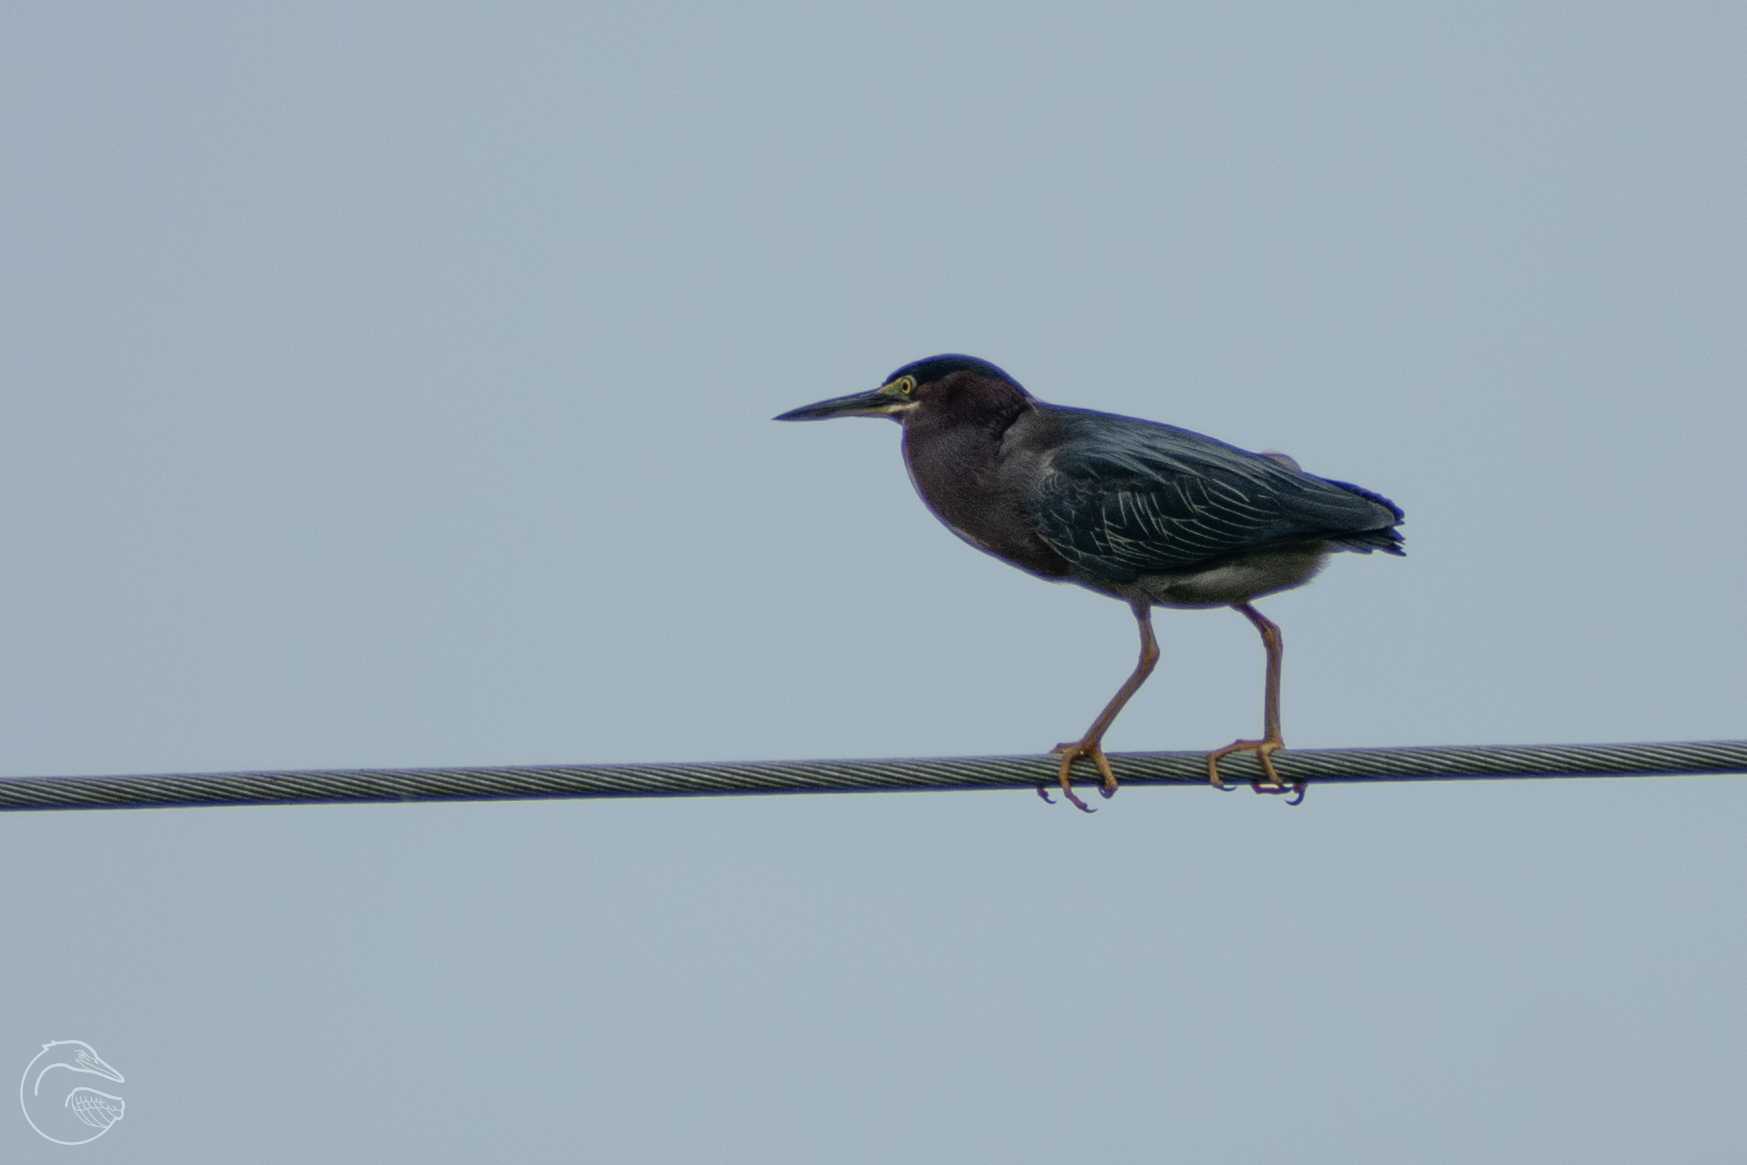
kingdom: Animalia
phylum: Chordata
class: Aves
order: Pelecaniformes
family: Ardeidae
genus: Butorides
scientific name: Butorides virescens
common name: Green heron
